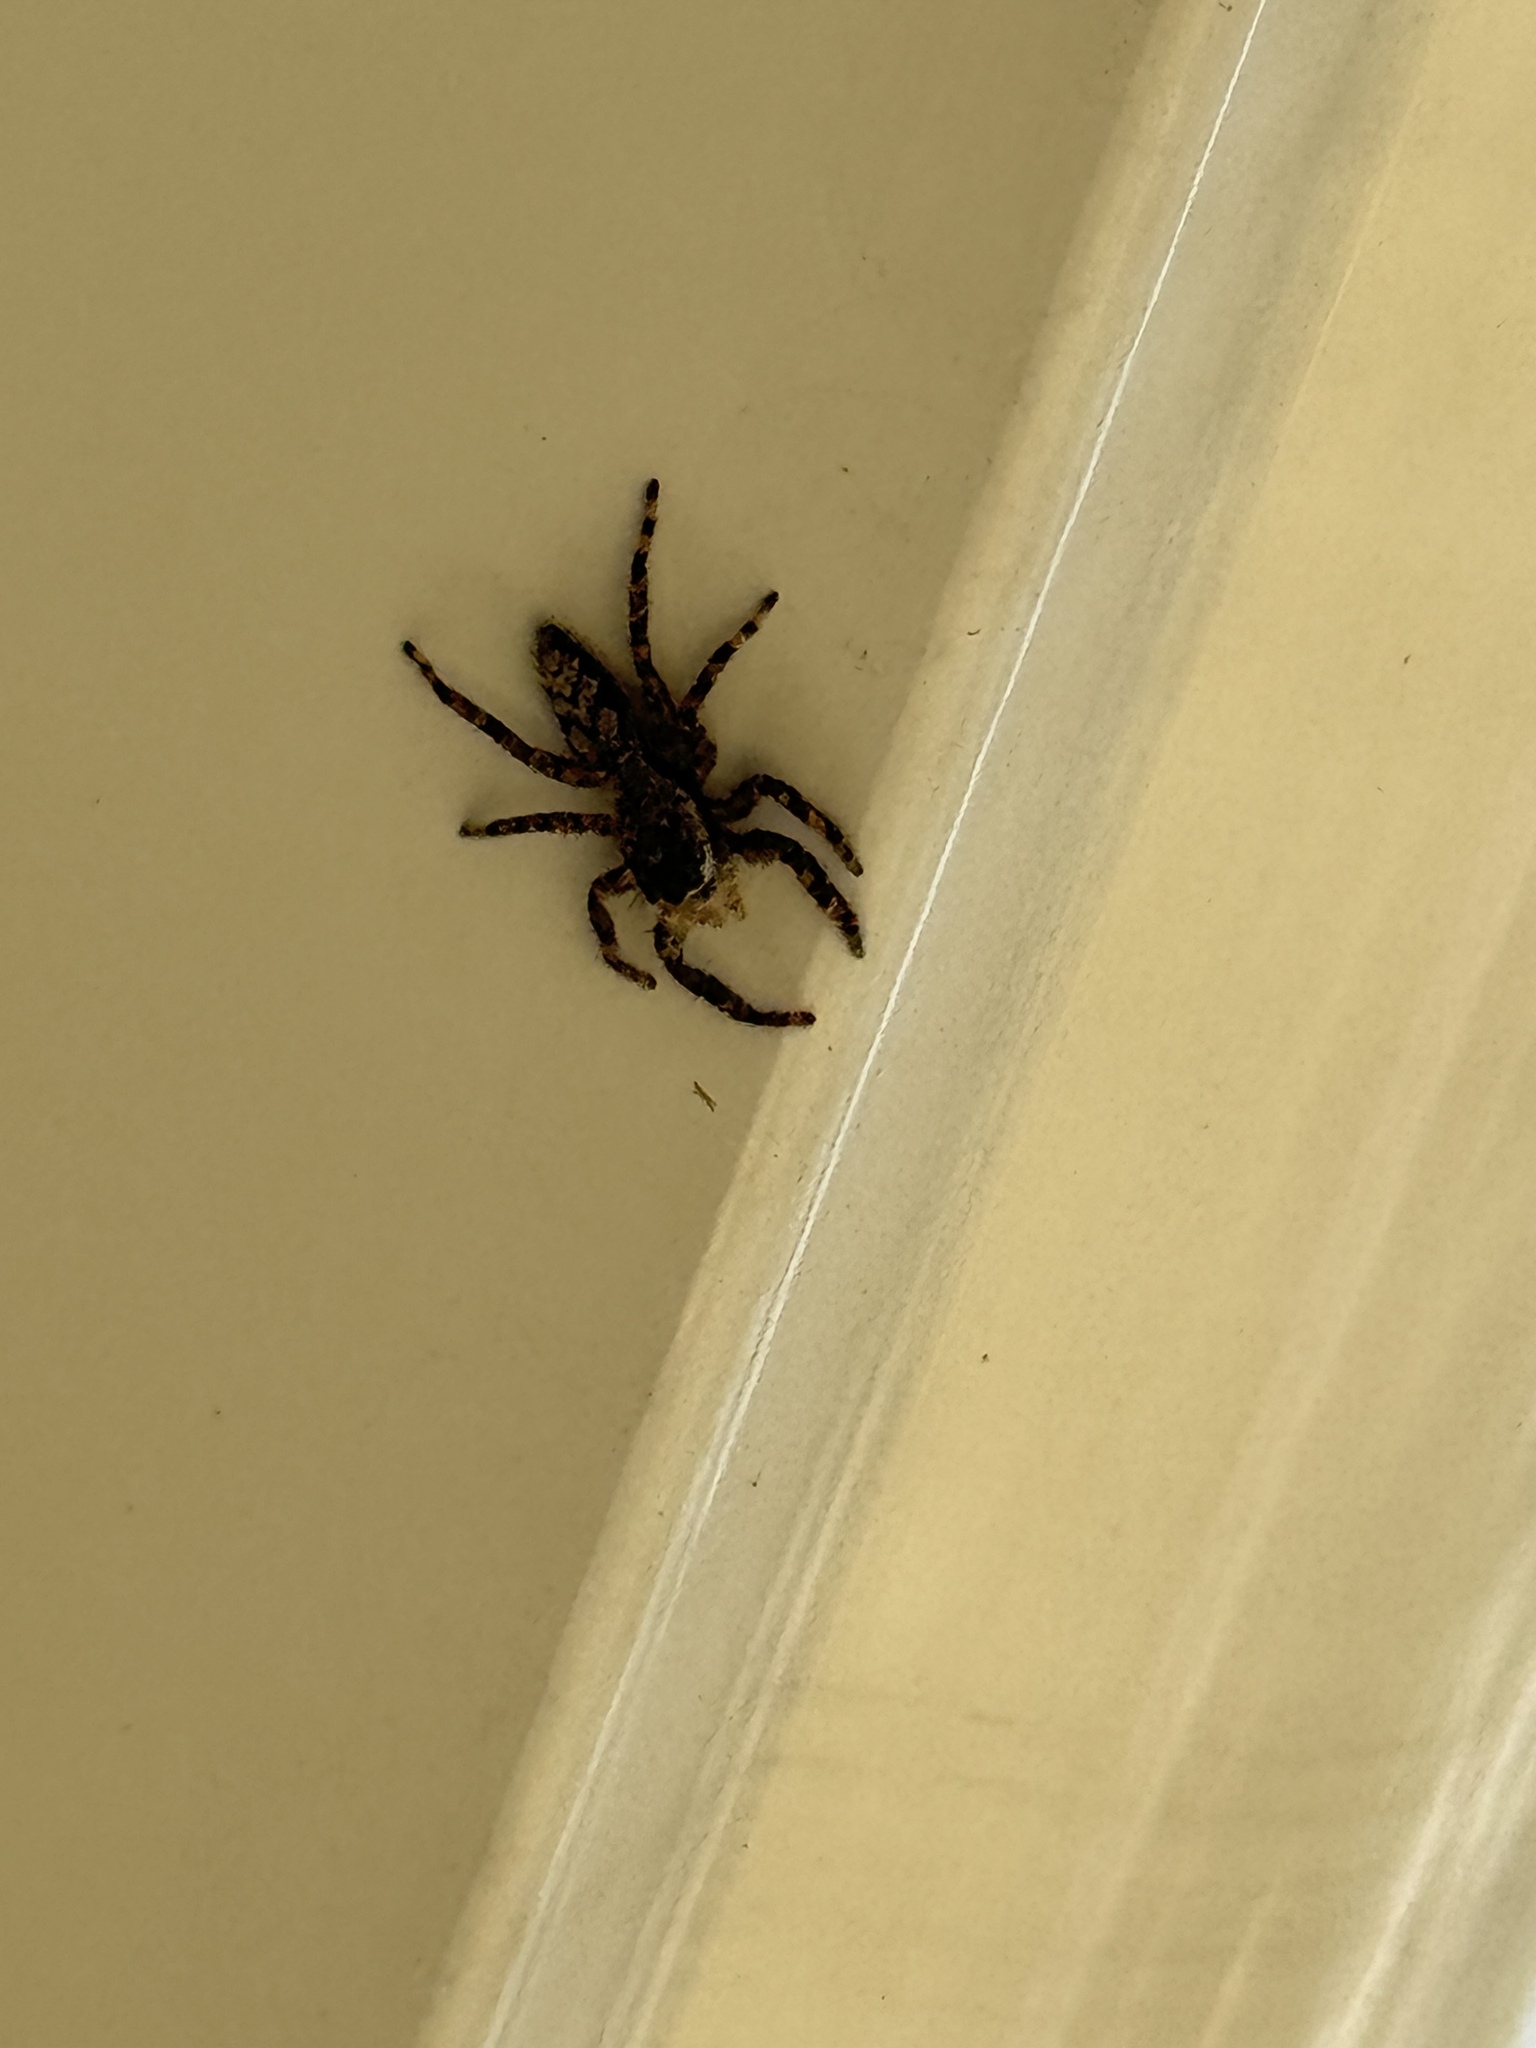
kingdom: Animalia
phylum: Arthropoda
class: Arachnida
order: Araneae
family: Salticidae
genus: Platycryptus
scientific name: Platycryptus undatus
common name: Tan jumping spider
